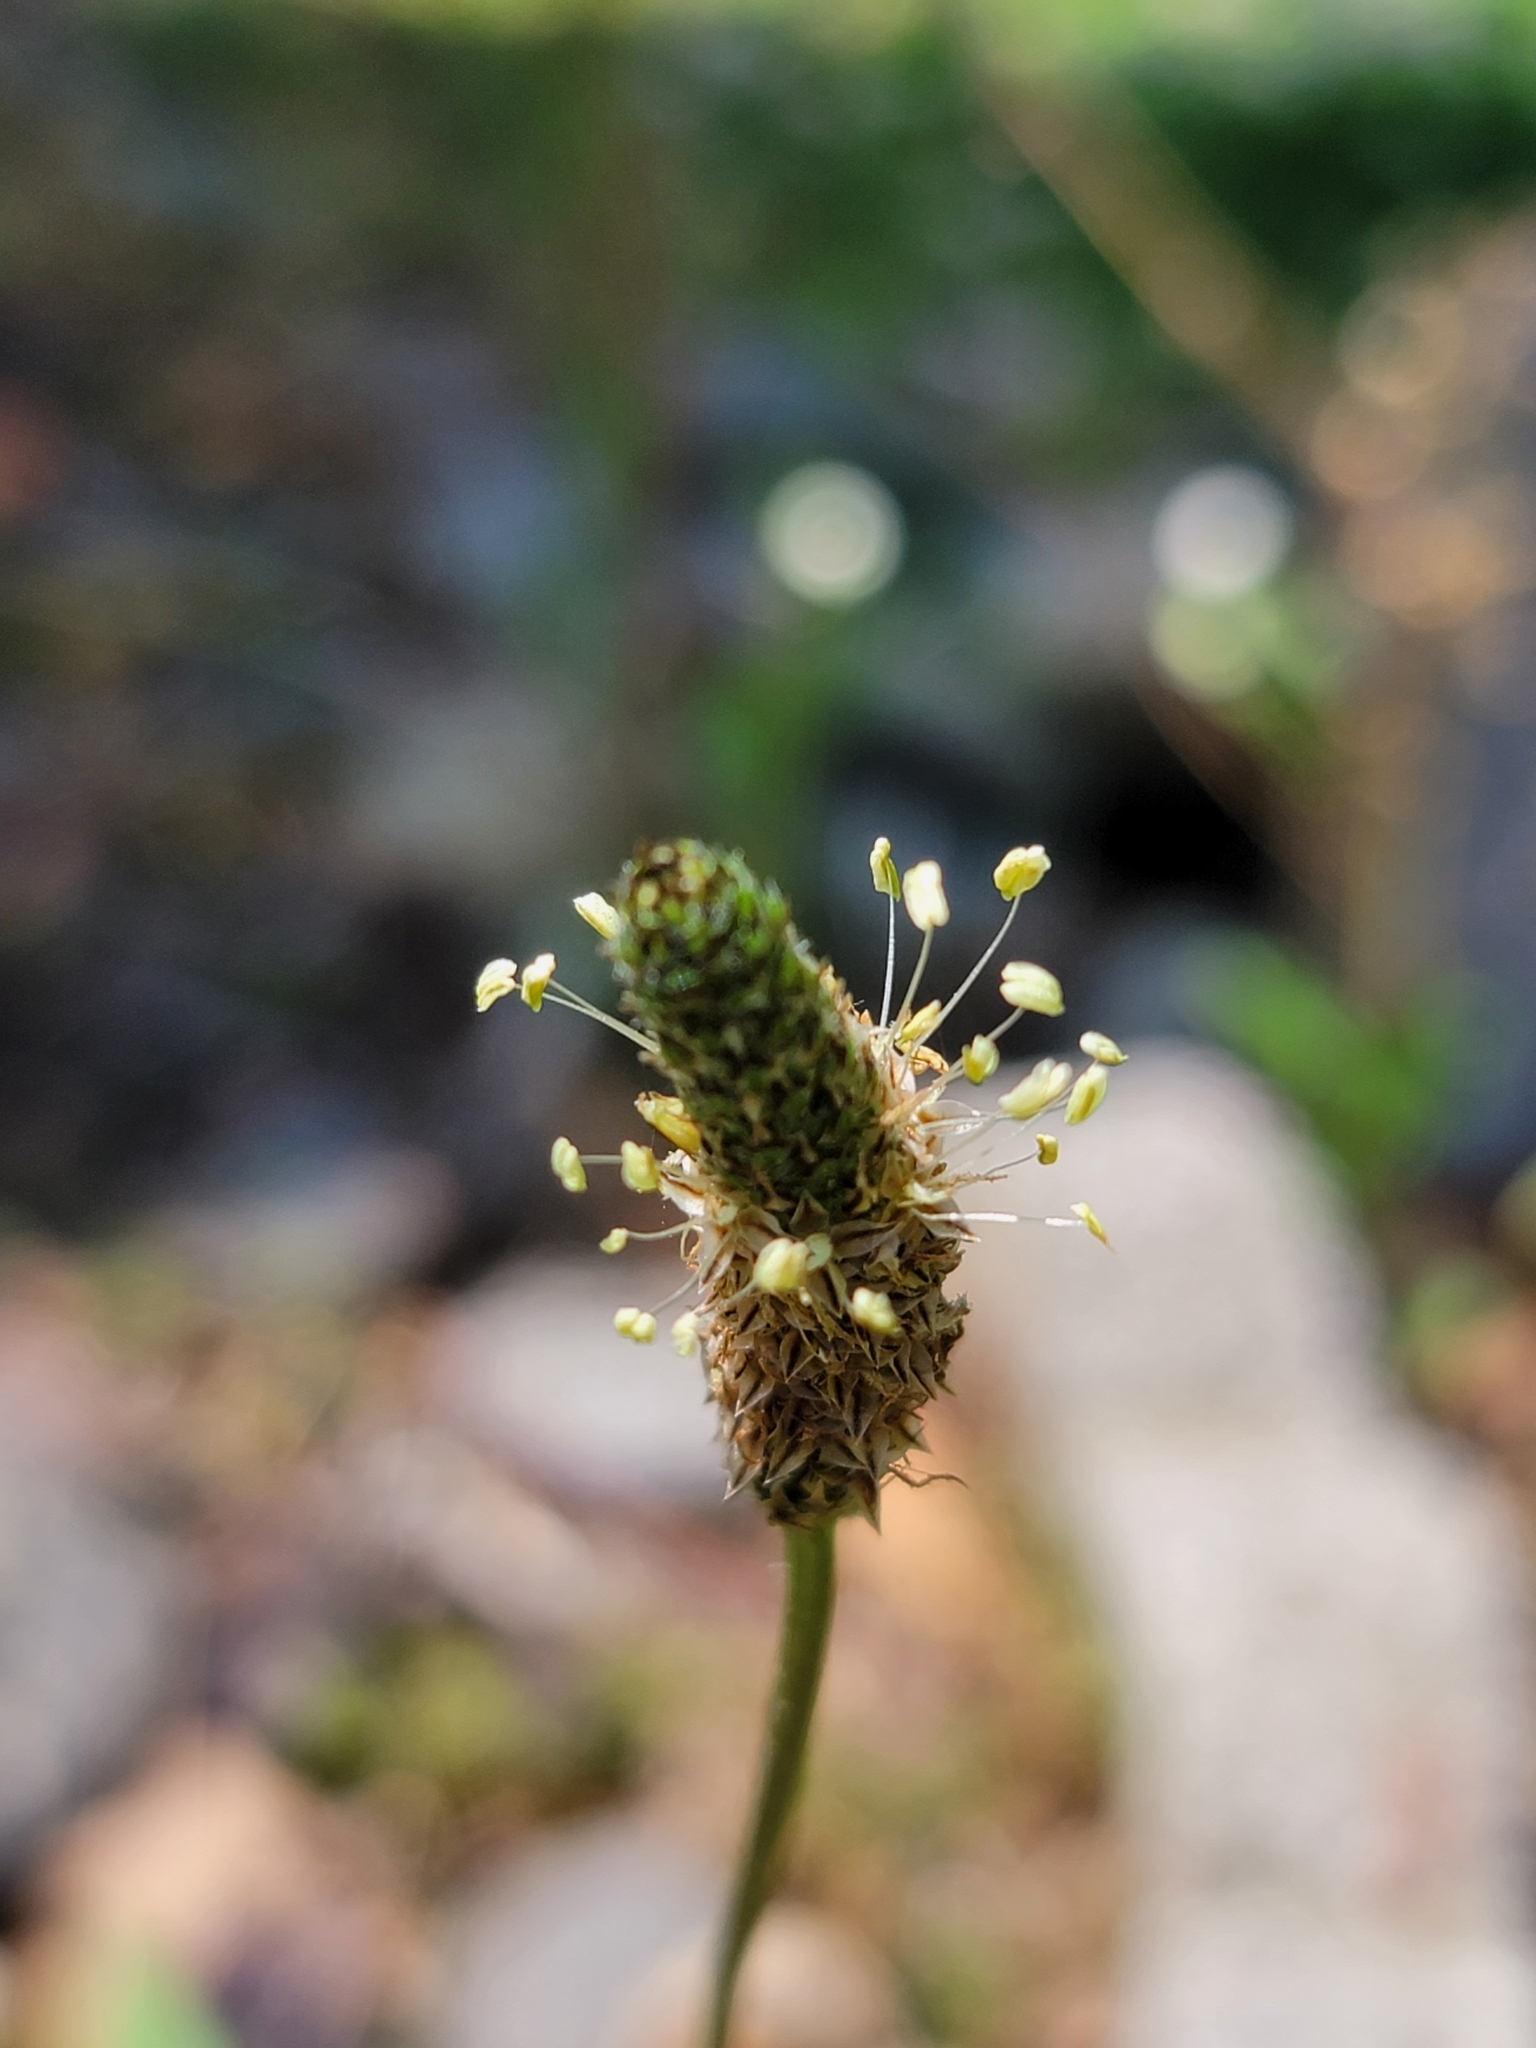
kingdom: Plantae
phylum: Tracheophyta
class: Magnoliopsida
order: Lamiales
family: Plantaginaceae
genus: Plantago
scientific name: Plantago lanceolata
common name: Ribwort plantain
